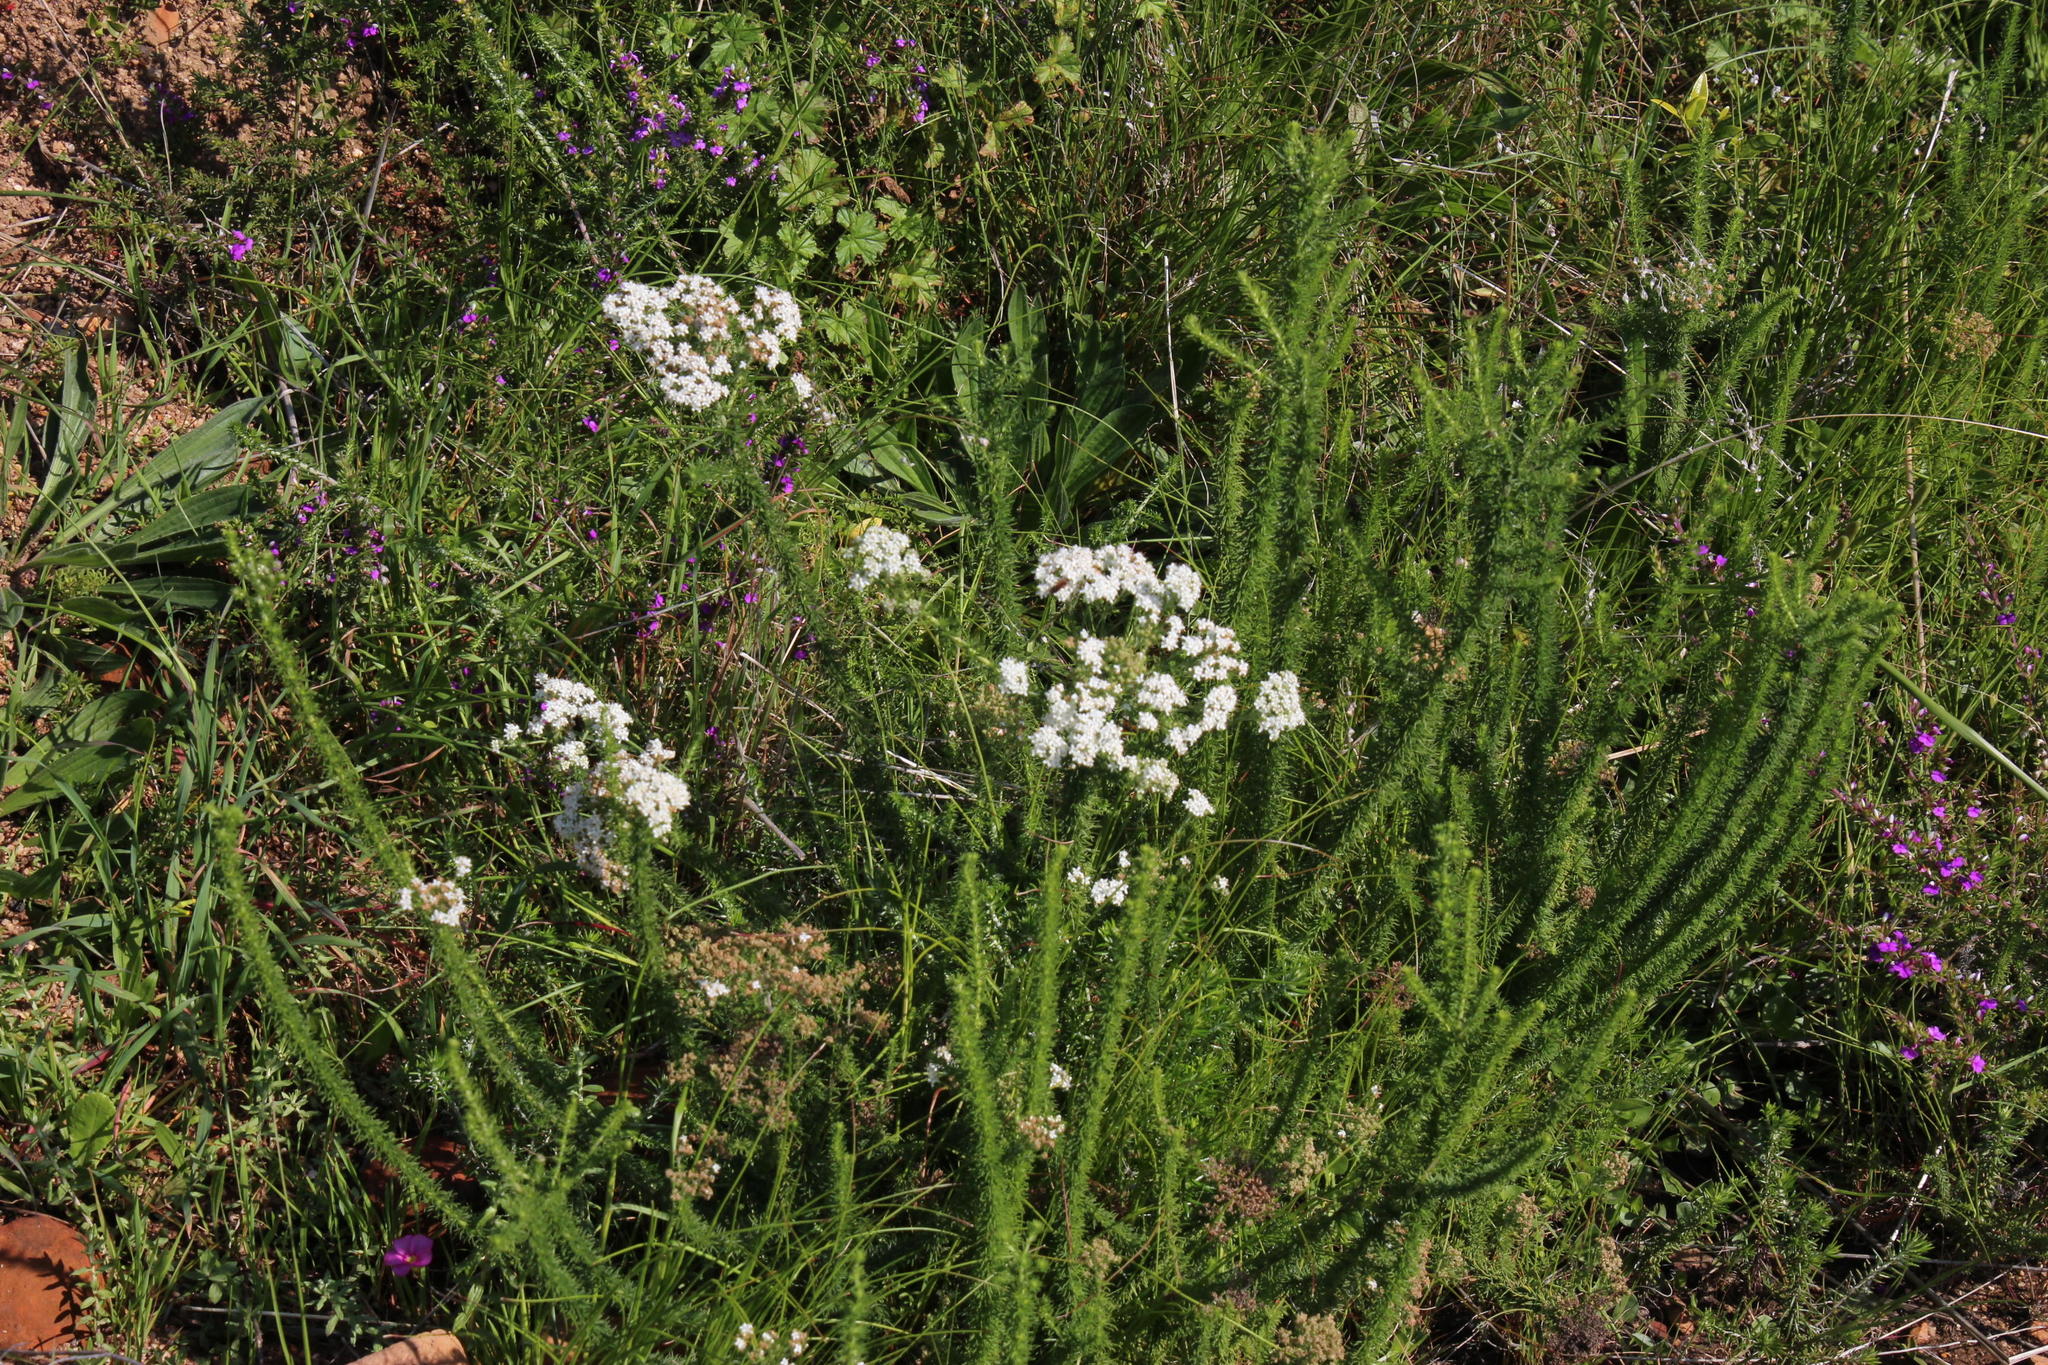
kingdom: Plantae
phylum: Tracheophyta
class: Magnoliopsida
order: Lamiales
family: Scrophulariaceae
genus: Selago
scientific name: Selago corymbosa
